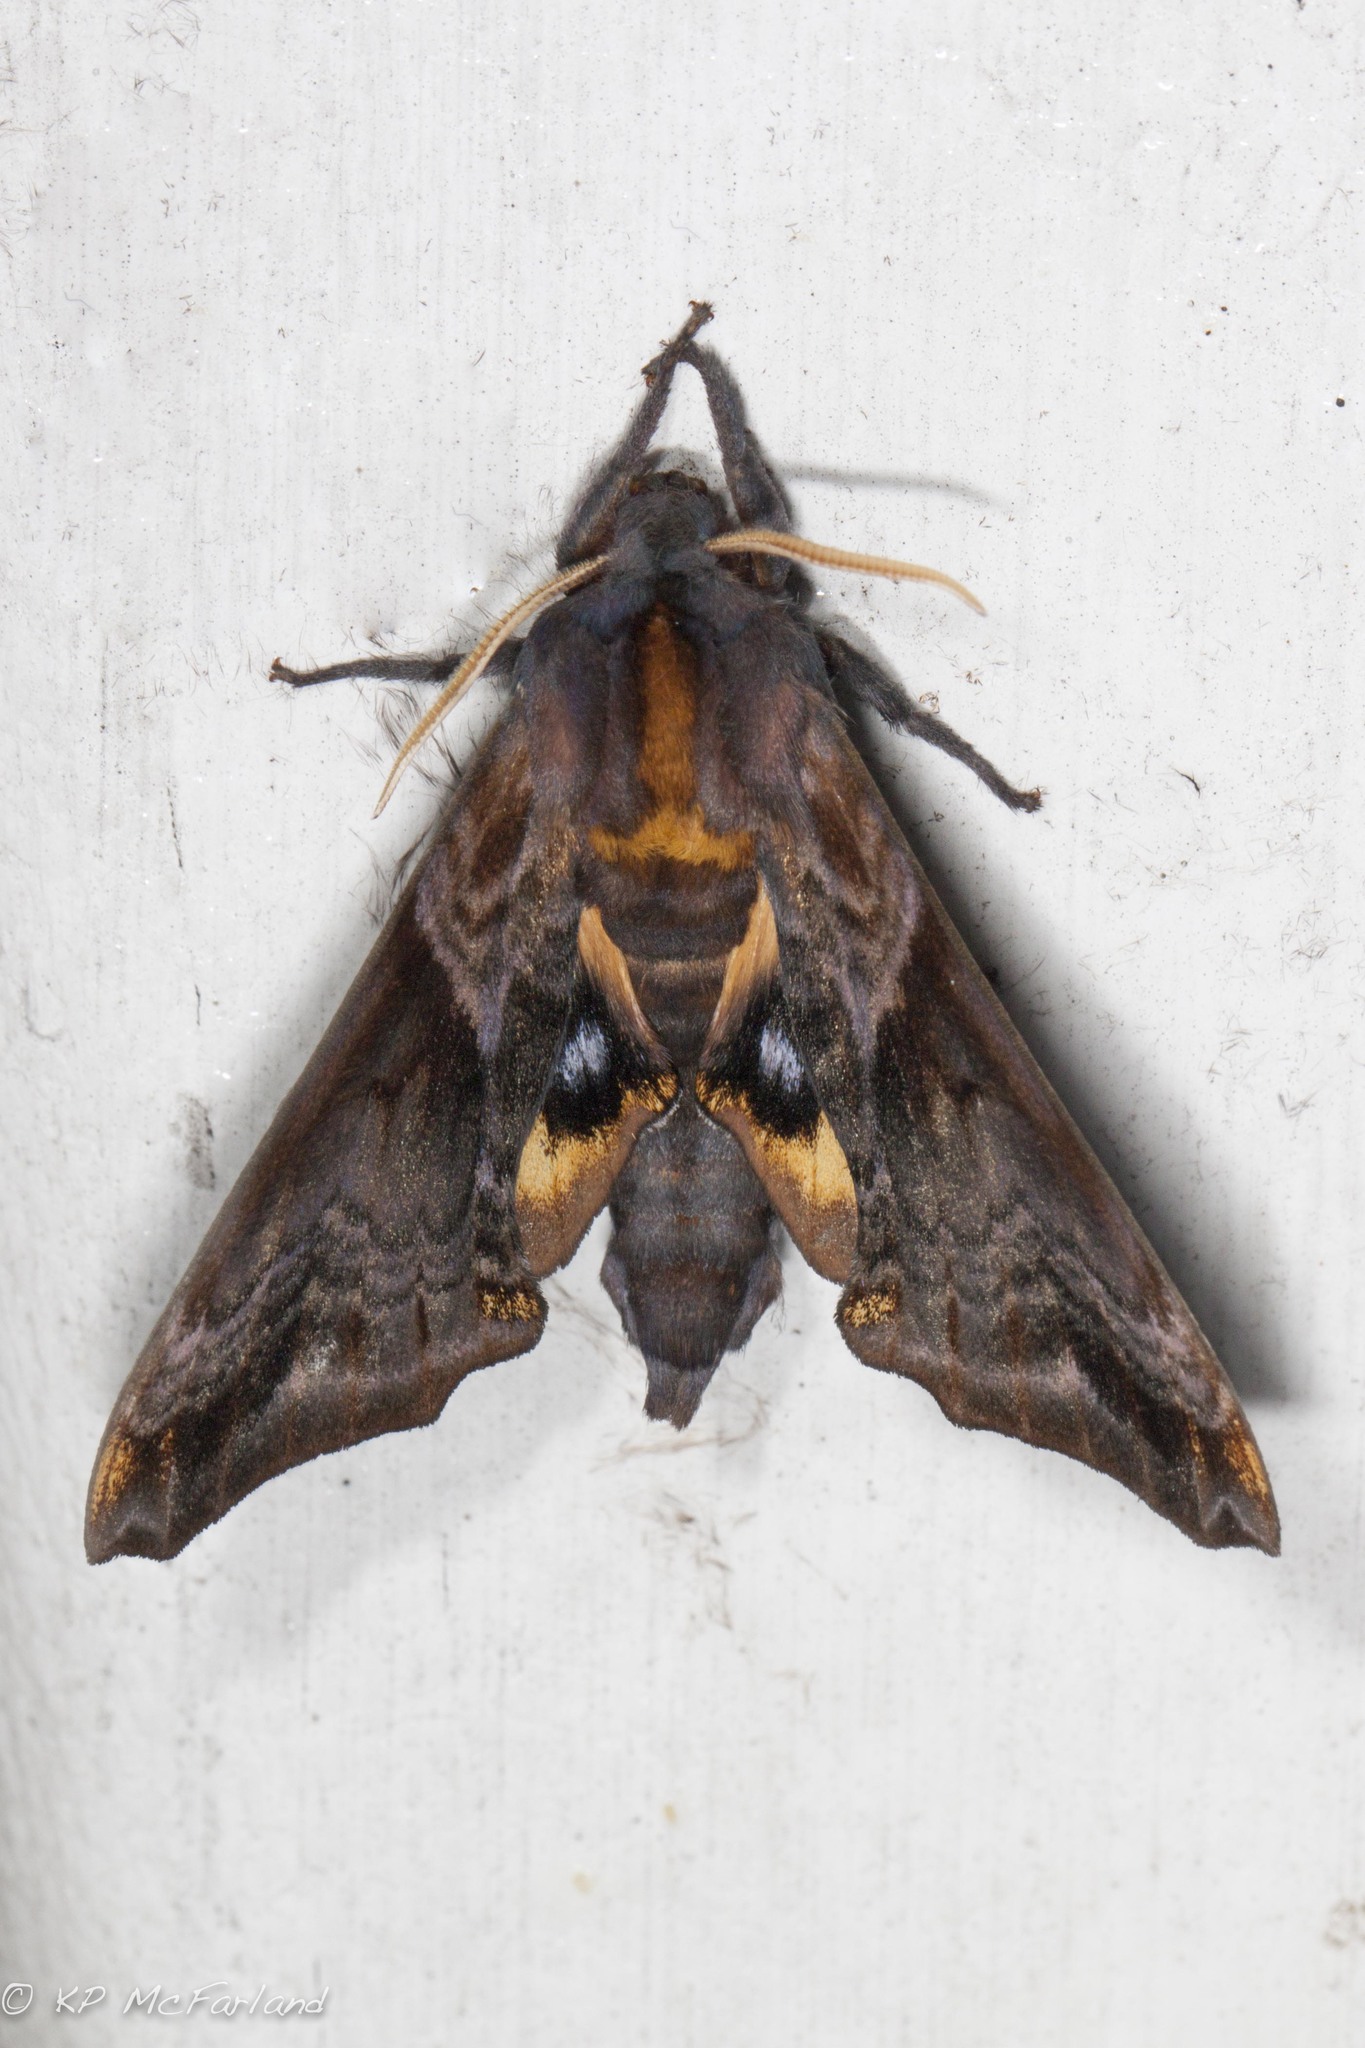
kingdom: Animalia
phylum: Arthropoda
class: Insecta
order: Lepidoptera
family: Sphingidae
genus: Paonias
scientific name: Paonias myops
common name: Small-eyed sphinx
